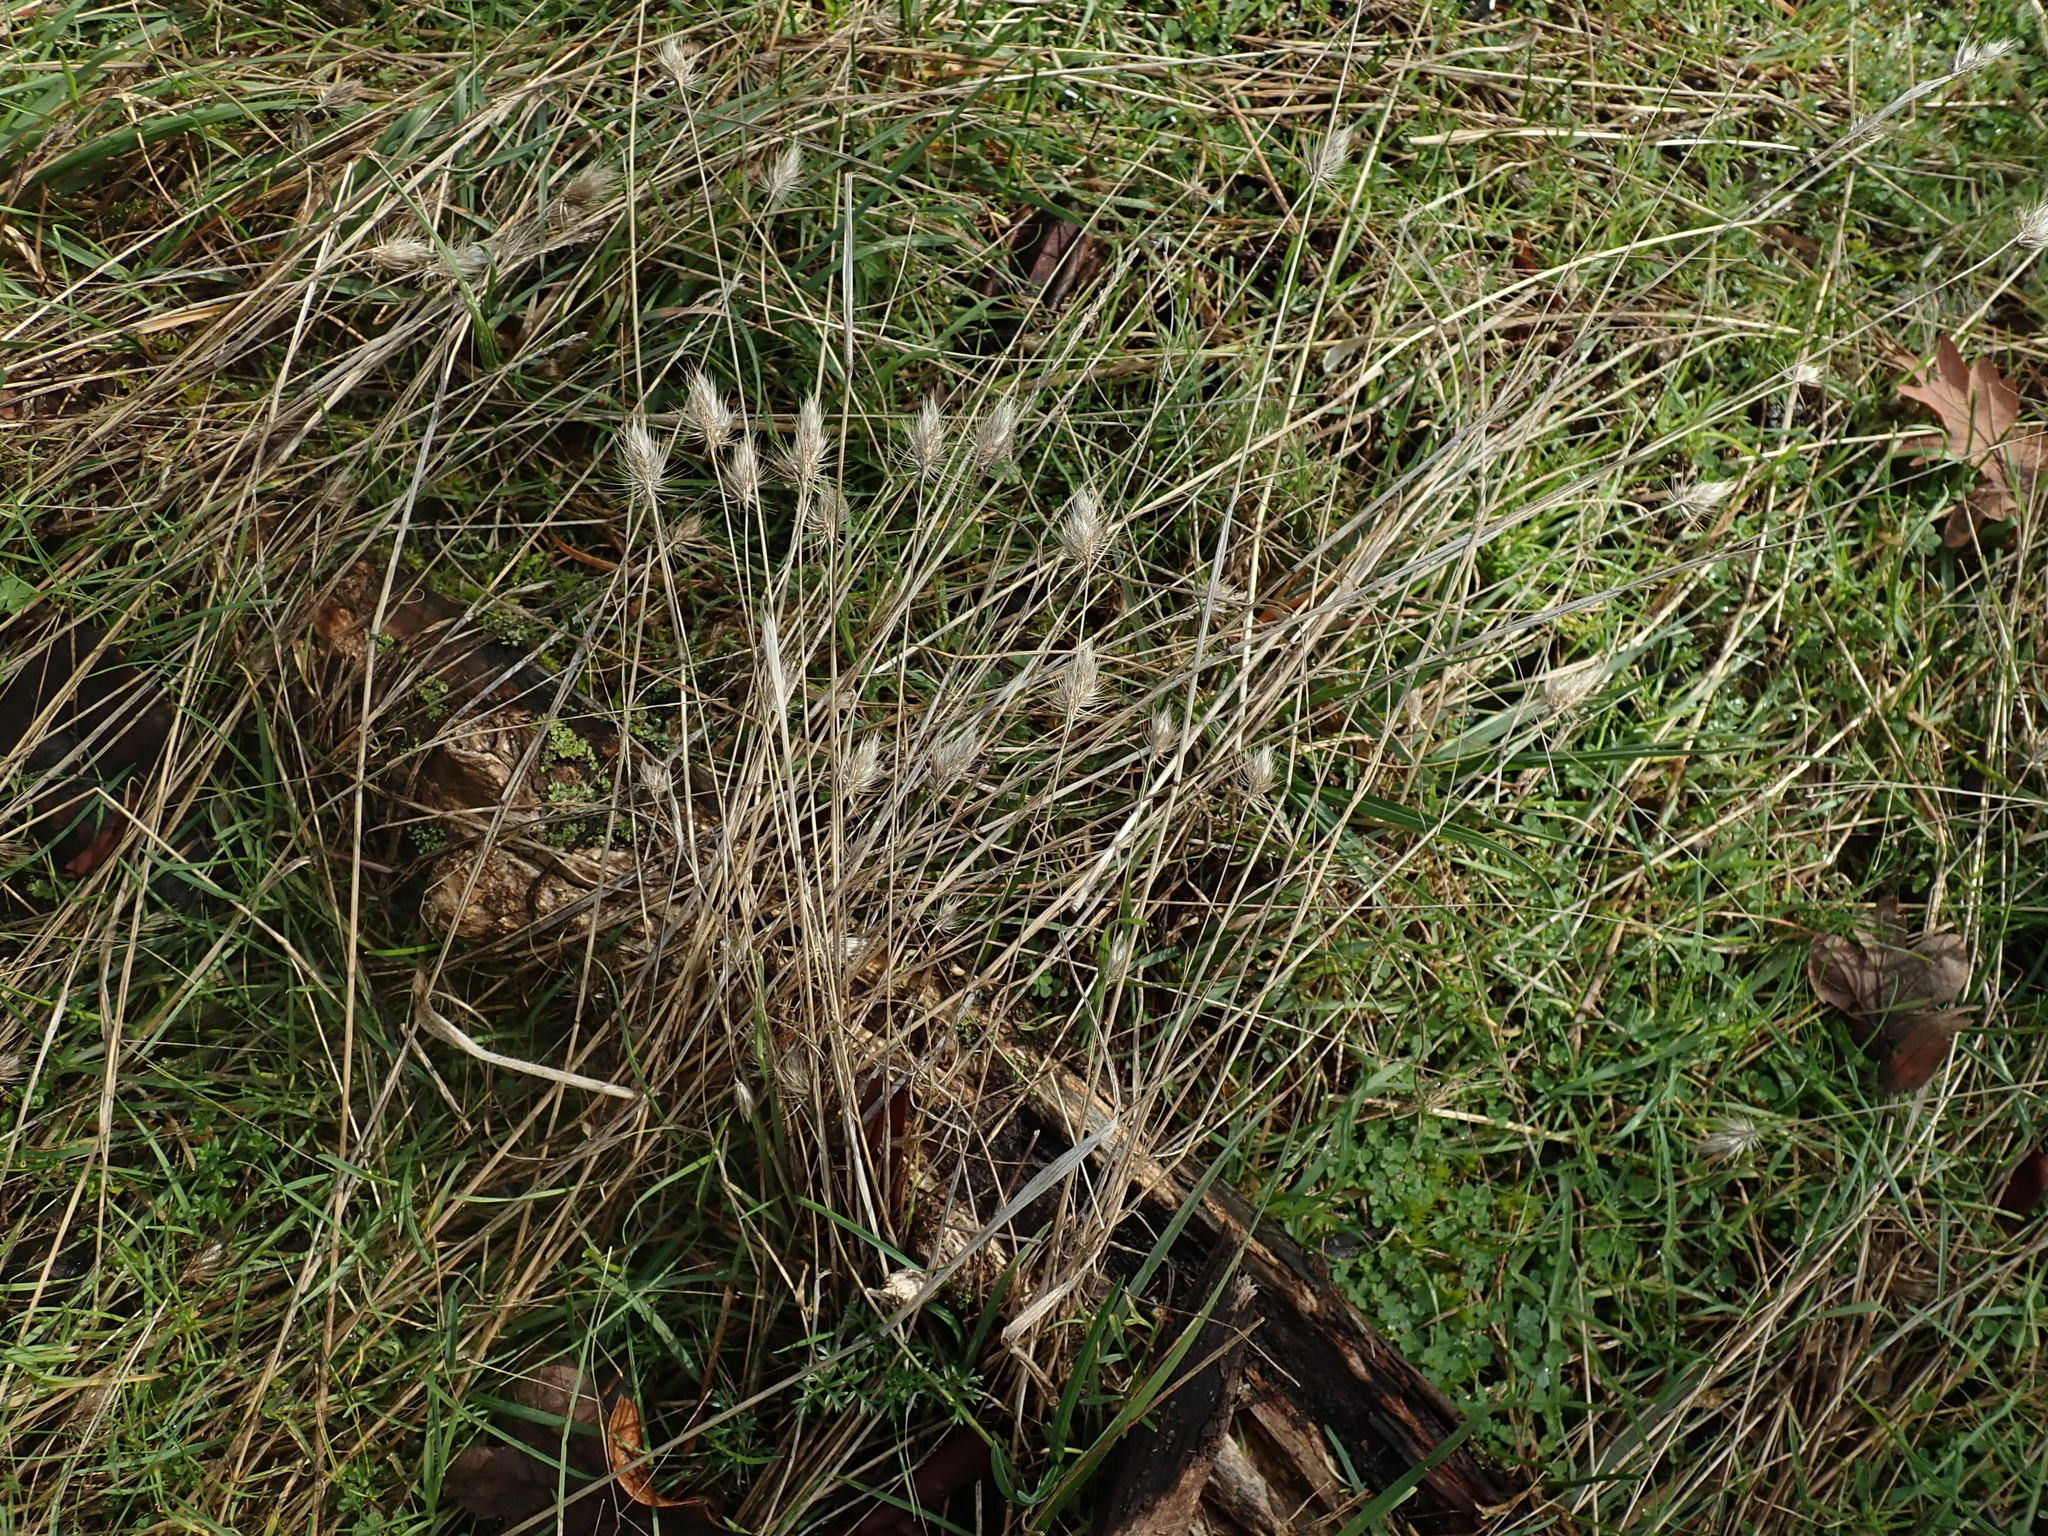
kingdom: Plantae
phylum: Tracheophyta
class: Liliopsida
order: Poales
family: Poaceae
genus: Cynosurus
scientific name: Cynosurus echinatus
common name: Rough dog's-tail
